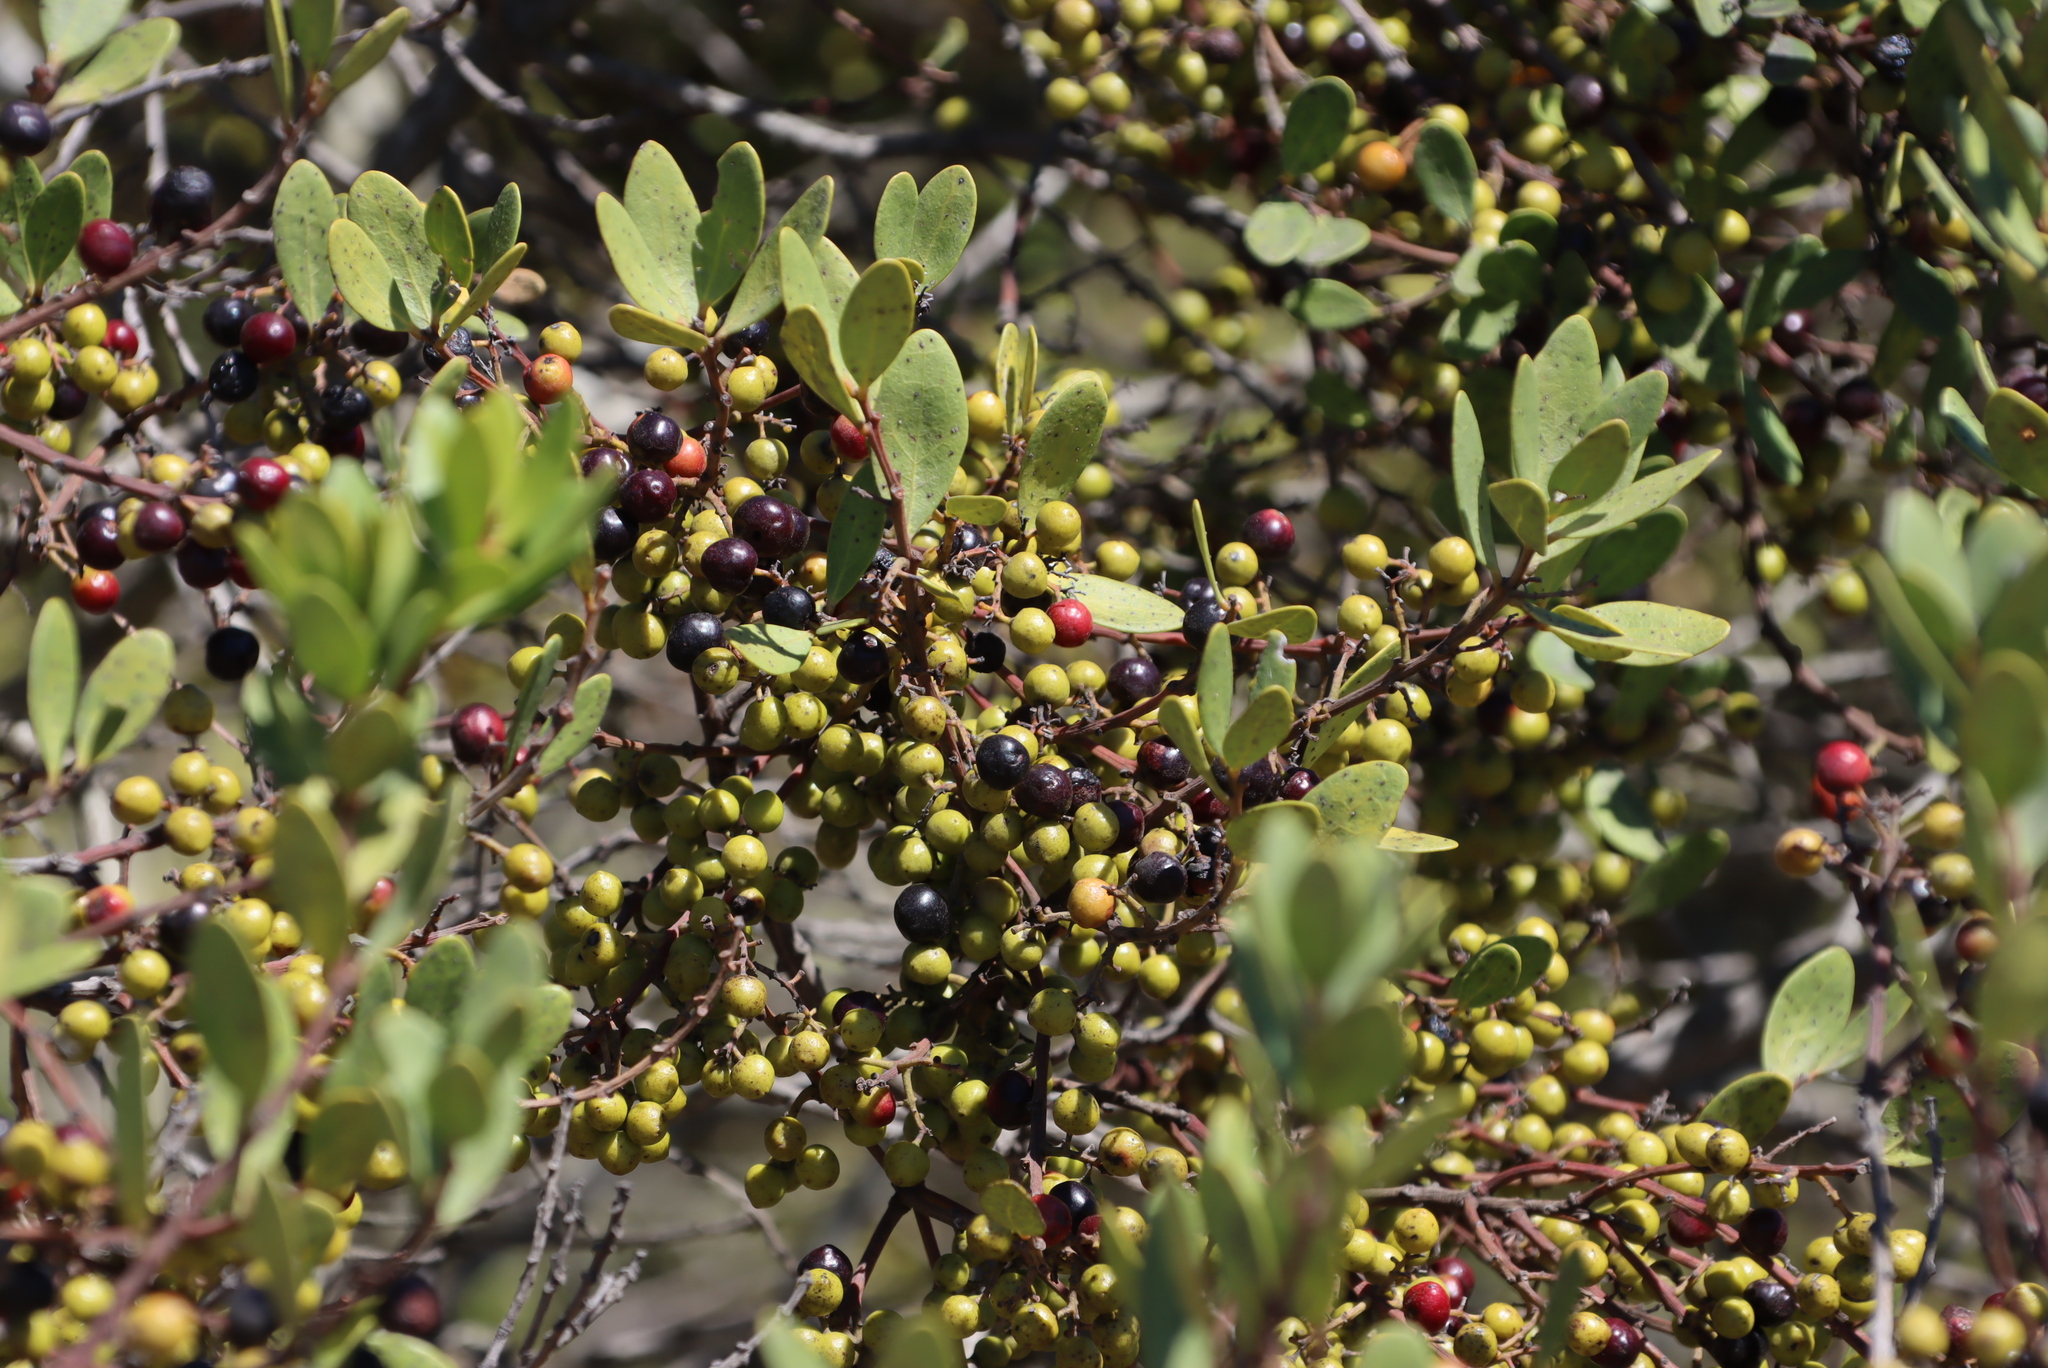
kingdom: Plantae
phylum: Tracheophyta
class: Magnoliopsida
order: Ericales
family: Ebenaceae
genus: Euclea
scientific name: Euclea racemosa
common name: Dune guarri
